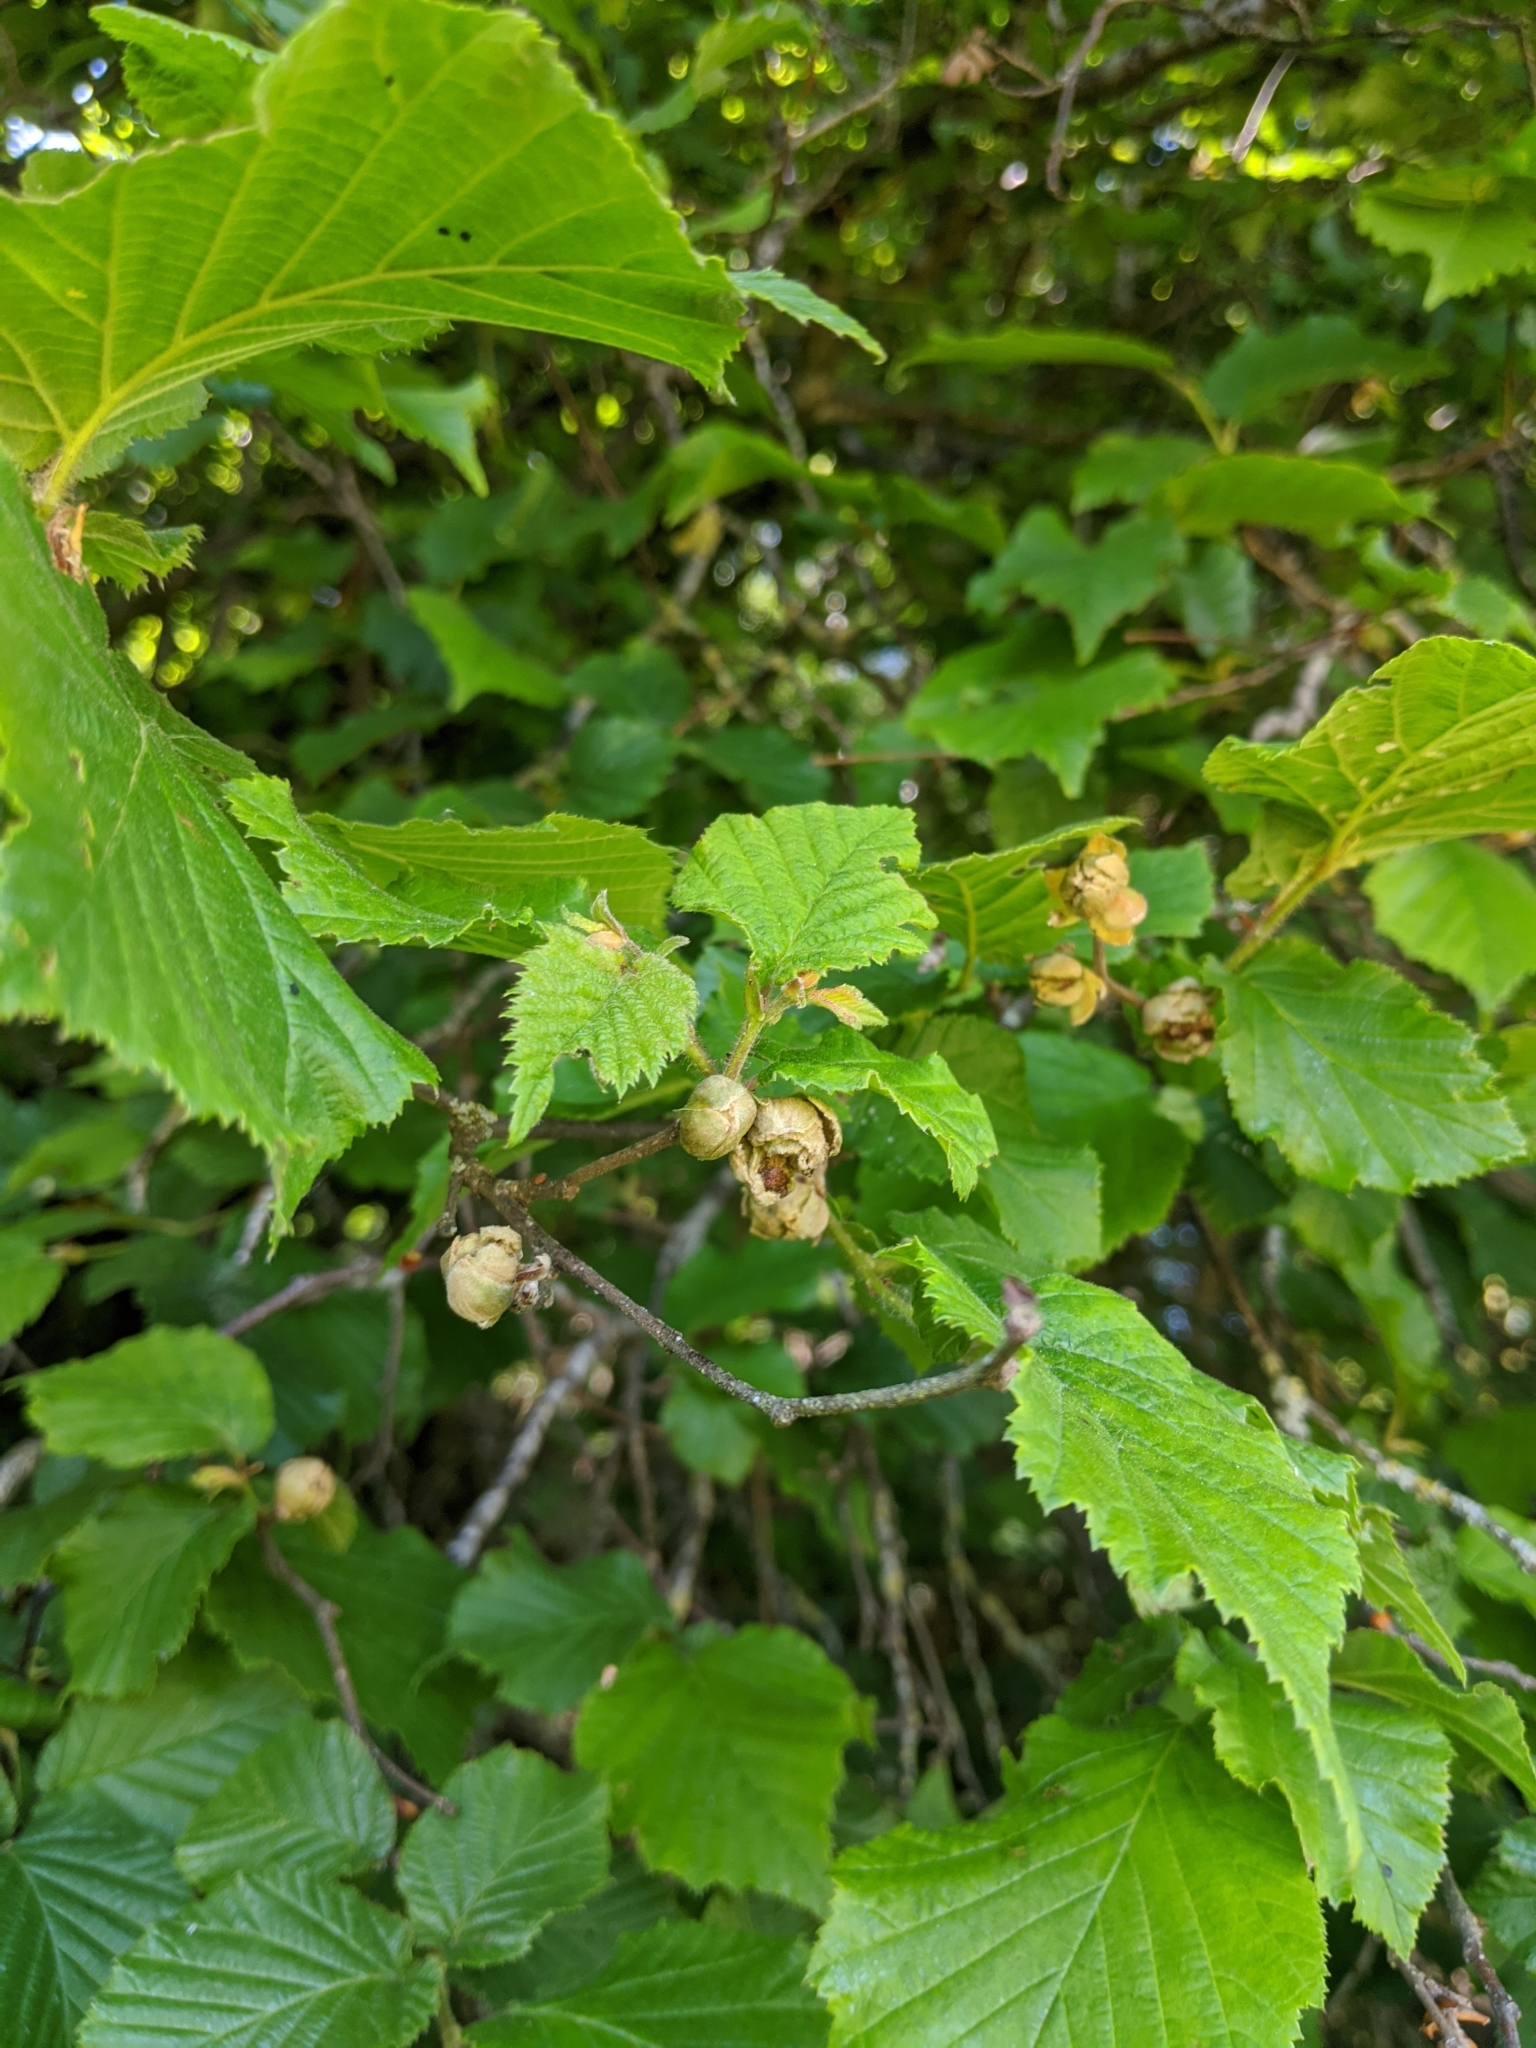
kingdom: Animalia
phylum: Arthropoda
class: Arachnida
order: Trombidiformes
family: Phytoptidae
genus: Phytoptus
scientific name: Phytoptus avellanae
